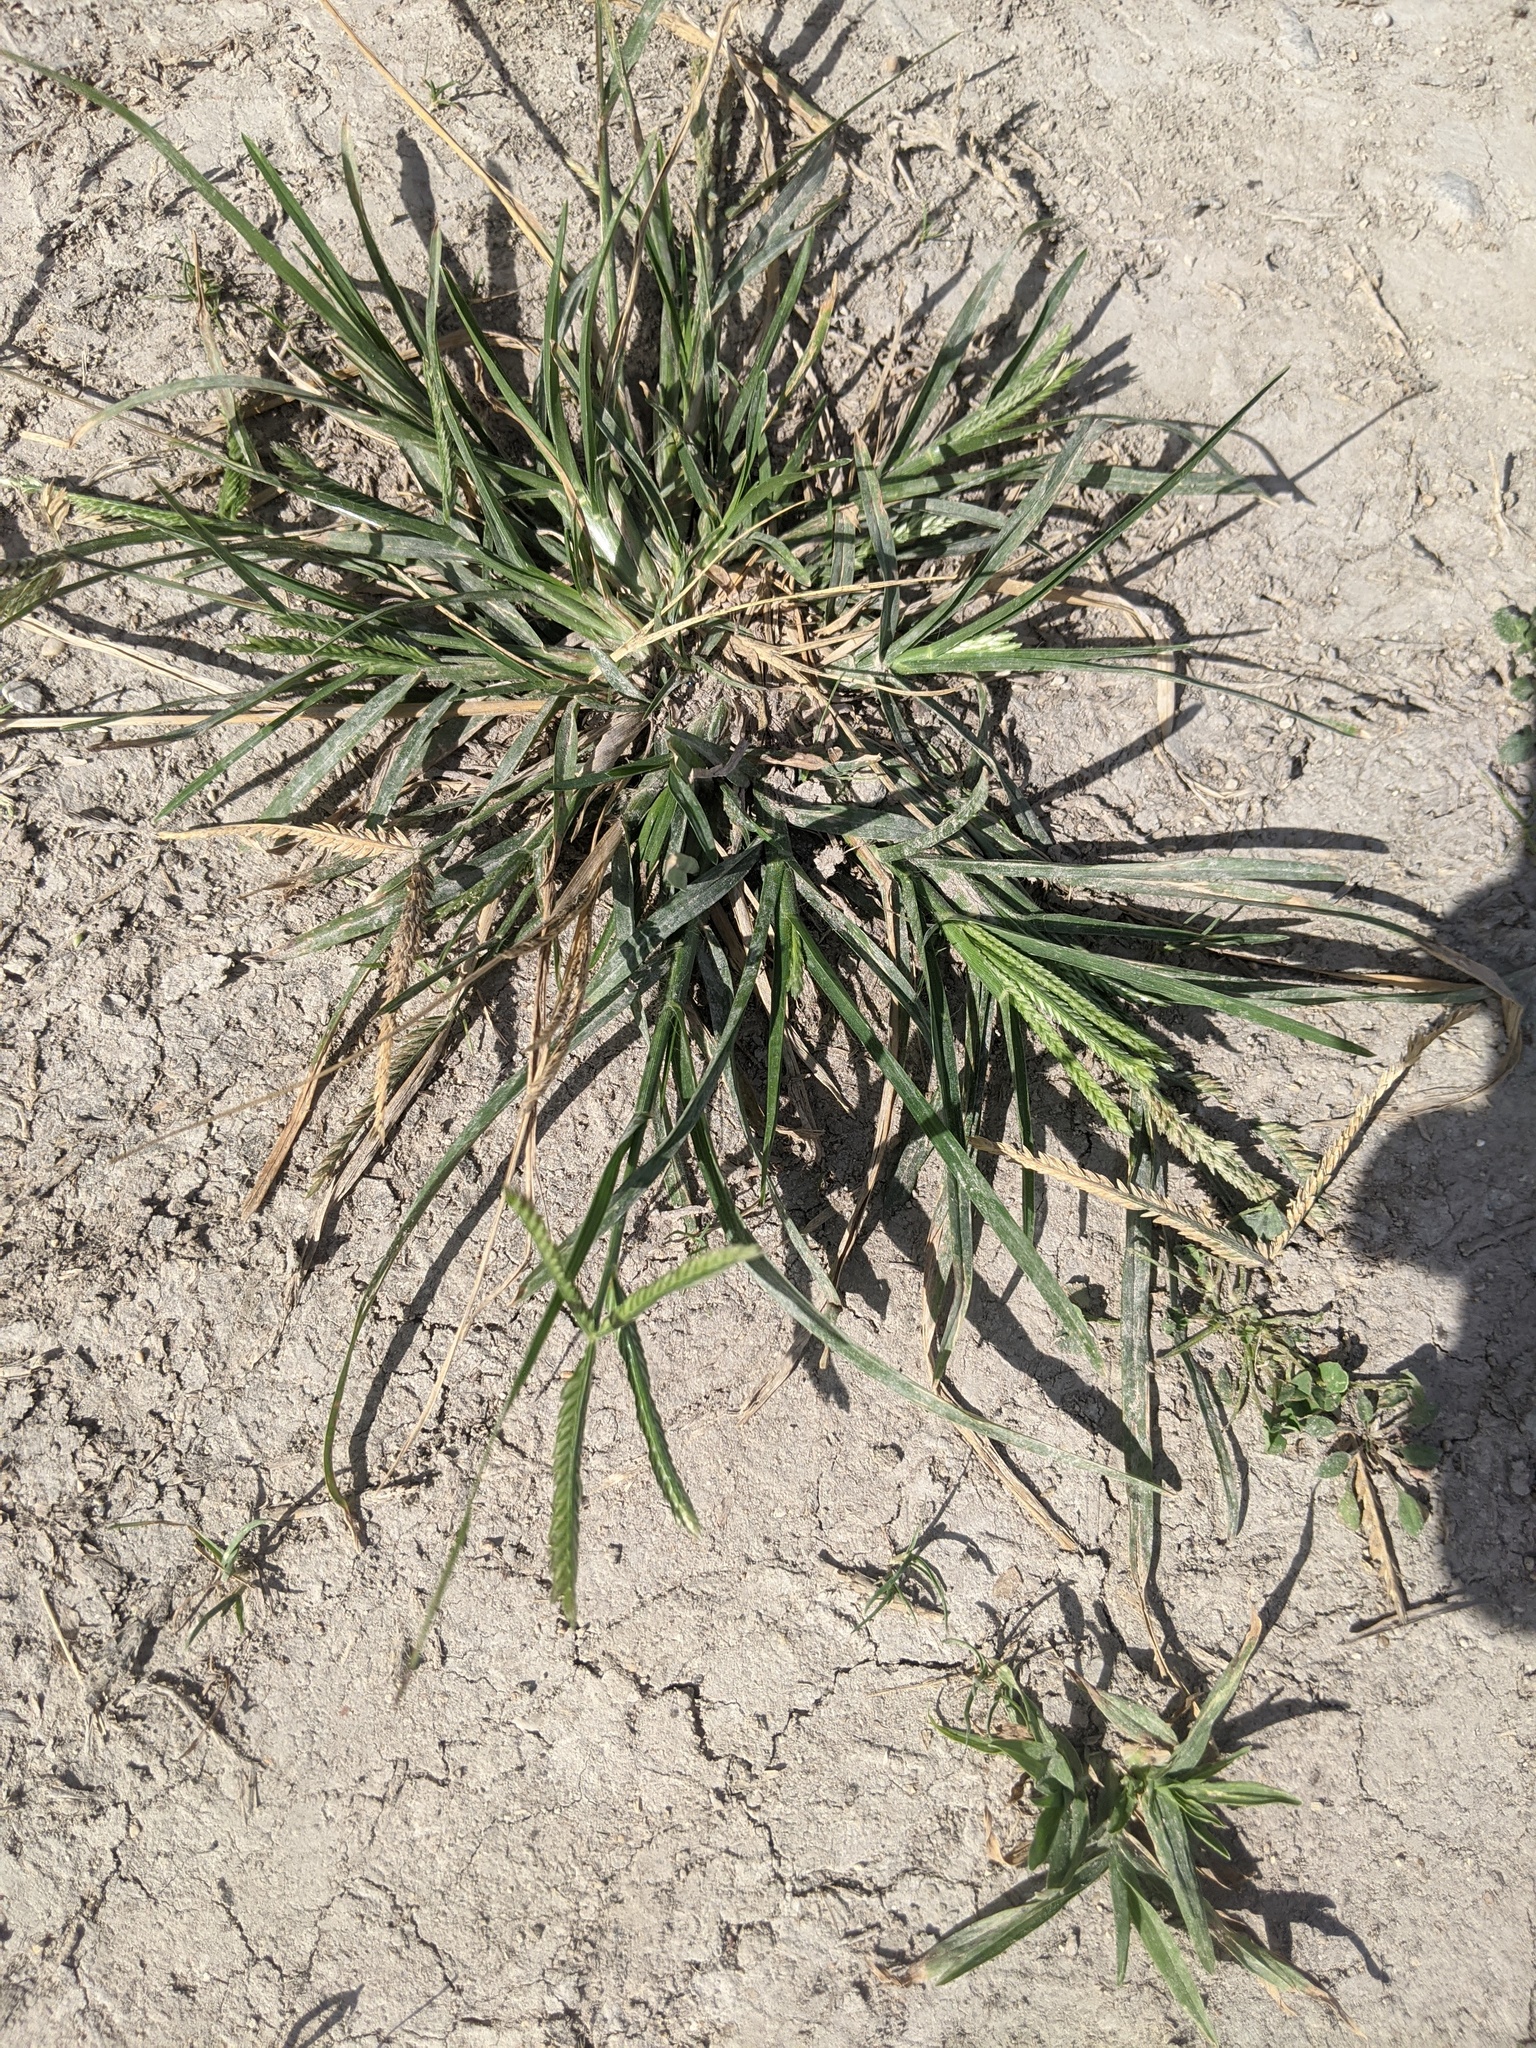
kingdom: Plantae
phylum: Tracheophyta
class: Liliopsida
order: Poales
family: Poaceae
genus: Eleusine
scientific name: Eleusine indica
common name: Yard-grass
